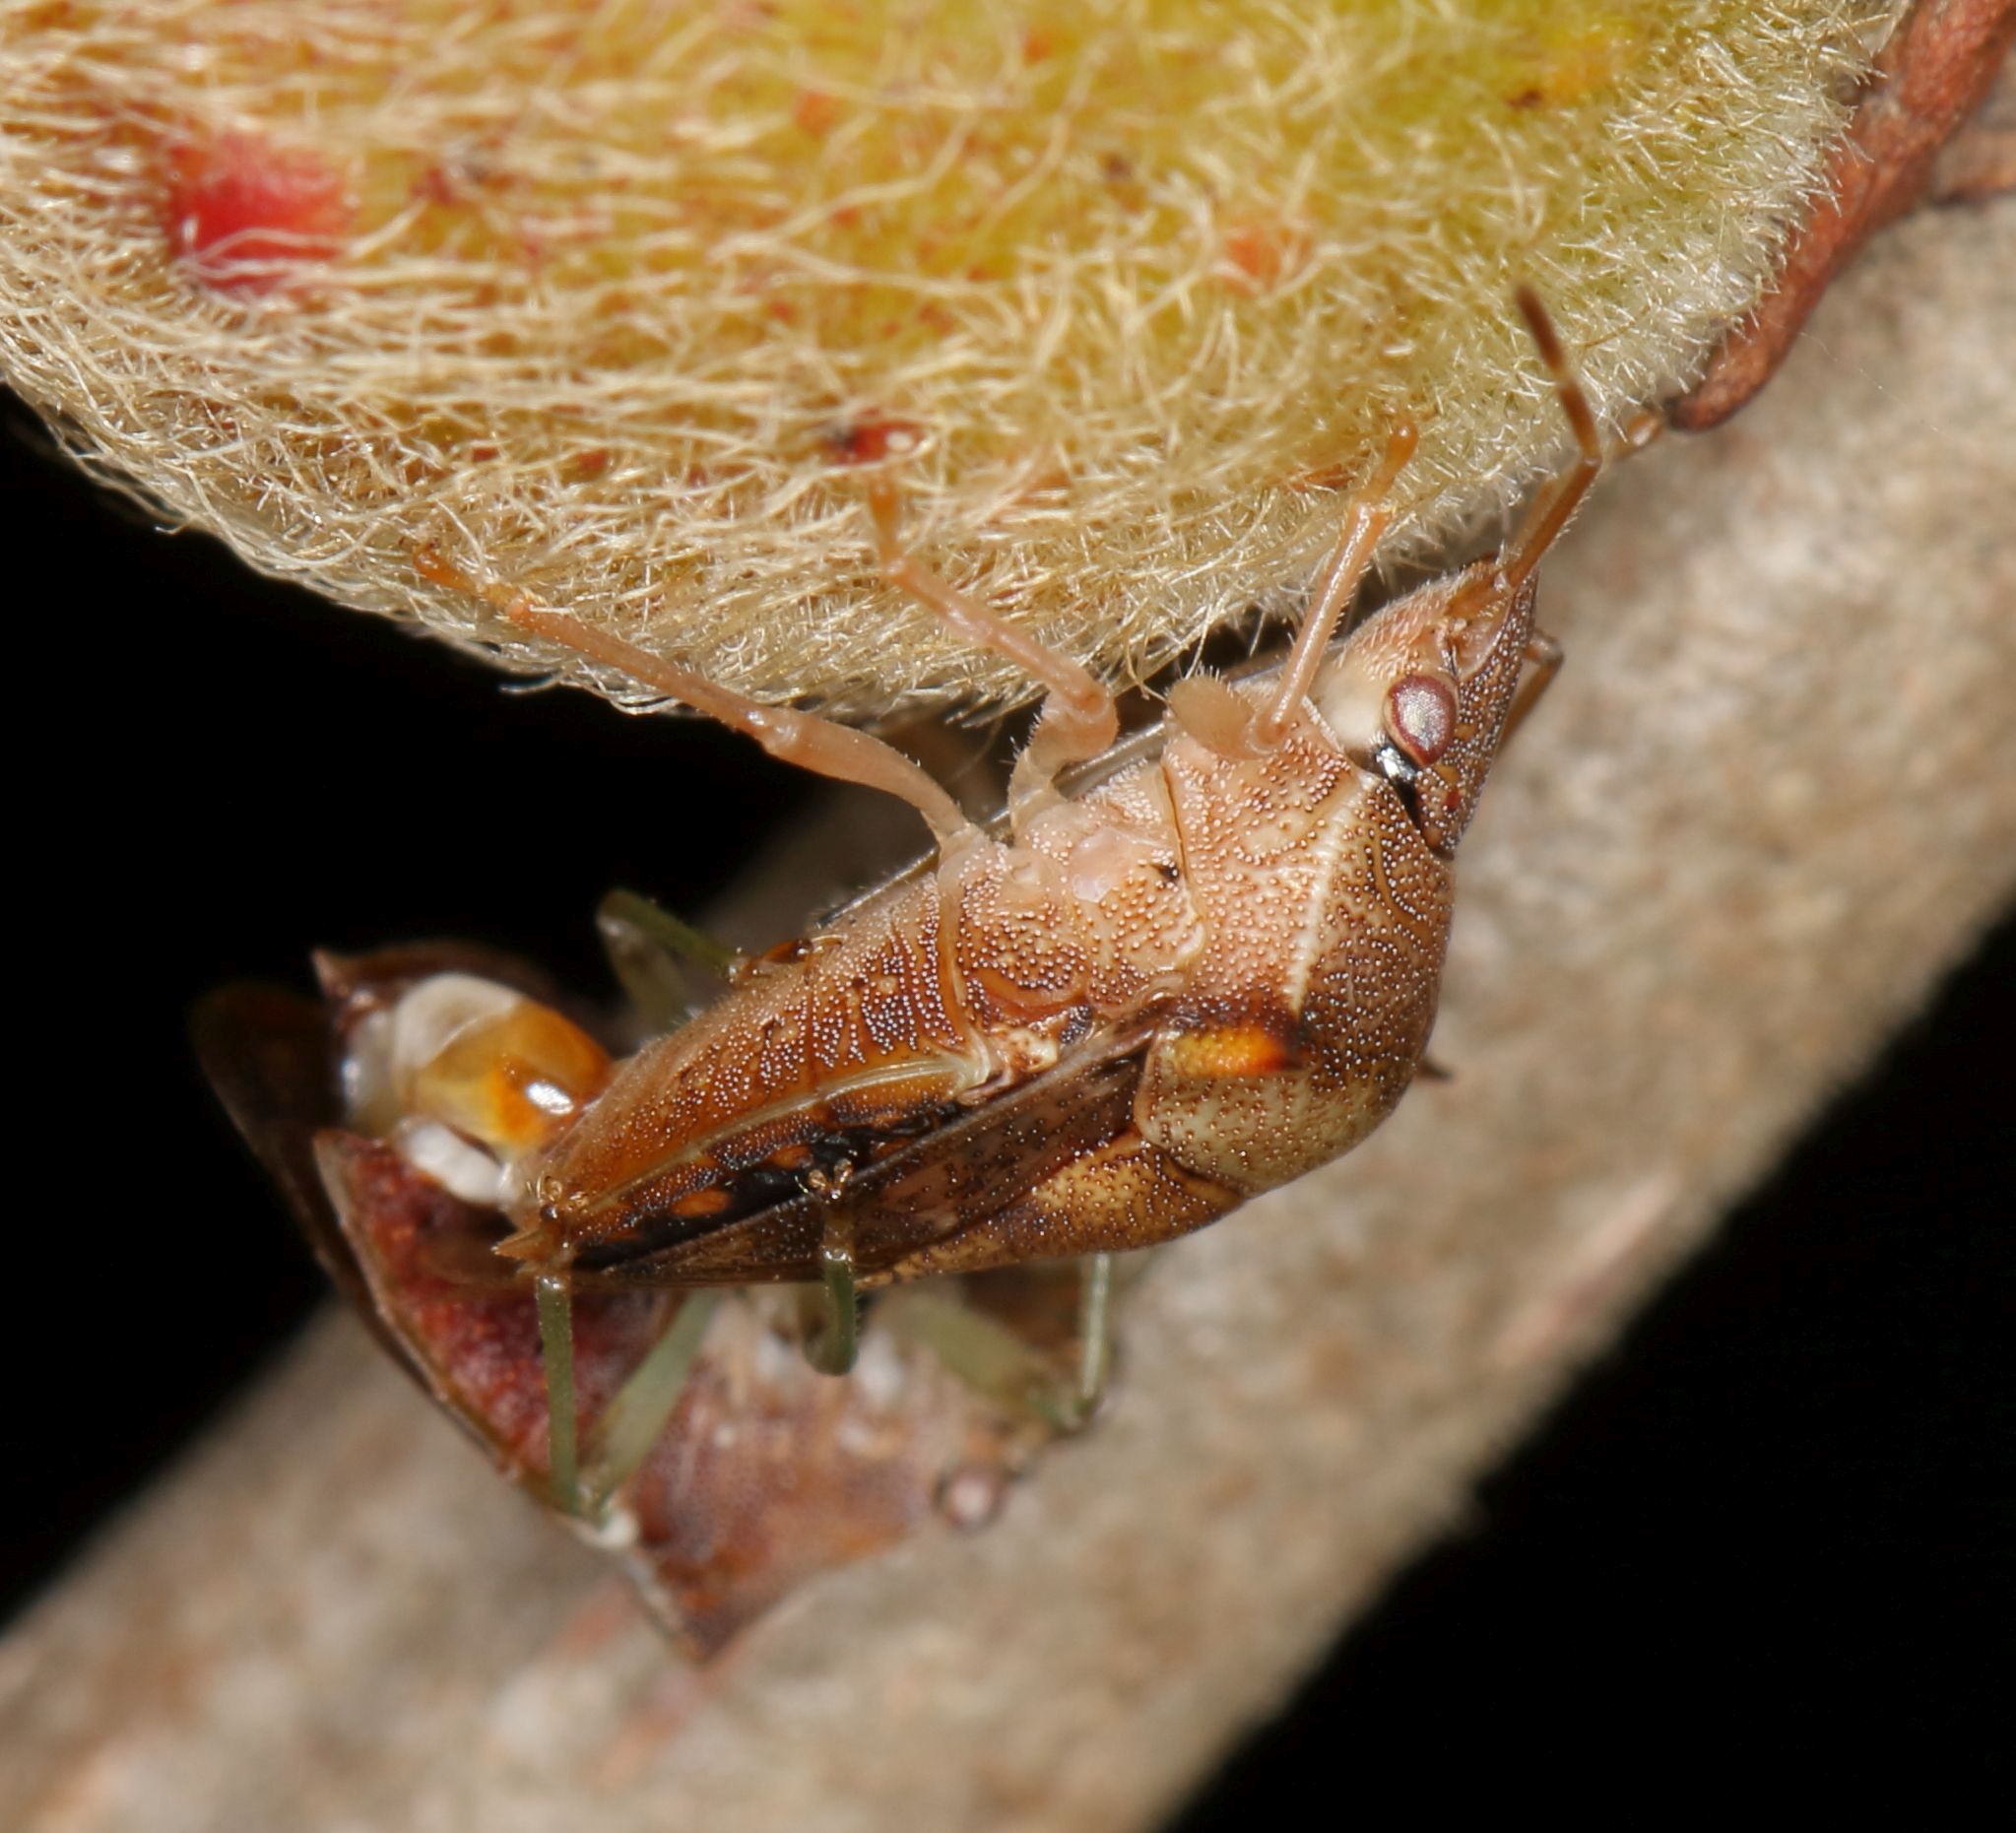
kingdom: Animalia
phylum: Arthropoda
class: Insecta
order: Hemiptera
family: Acanthosomatidae
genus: Uhlunga
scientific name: Uhlunga typica
